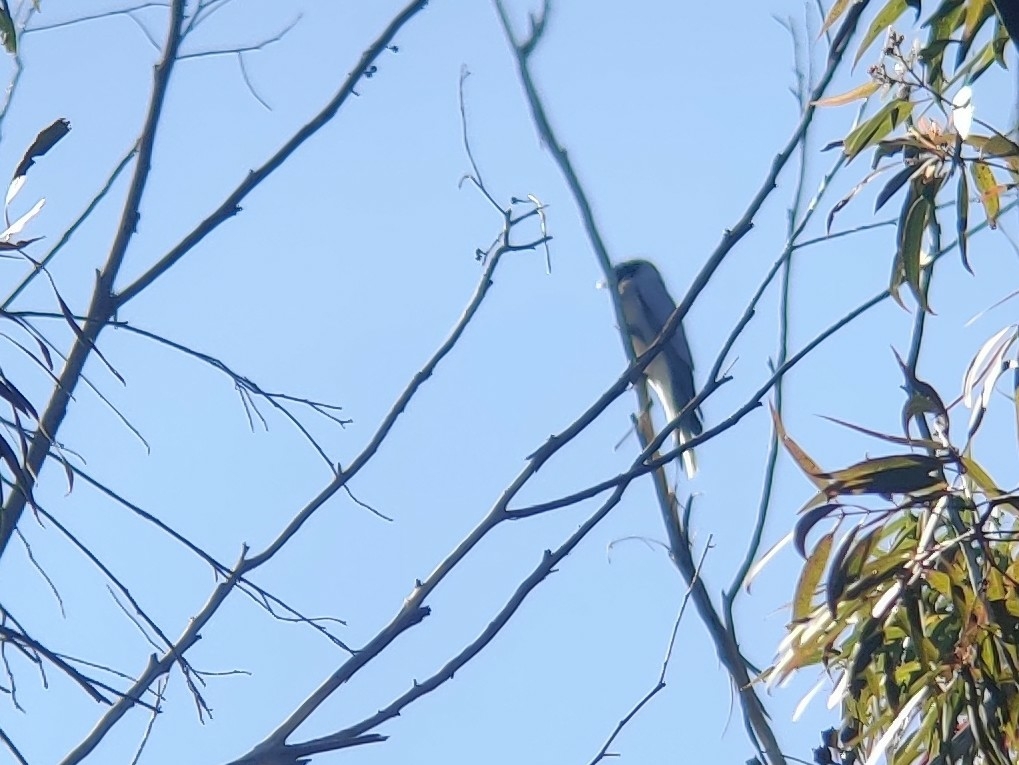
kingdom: Animalia
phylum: Chordata
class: Aves
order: Passeriformes
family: Campephagidae
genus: Coracina
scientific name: Coracina novaehollandiae
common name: Black-faced cuckooshrike
